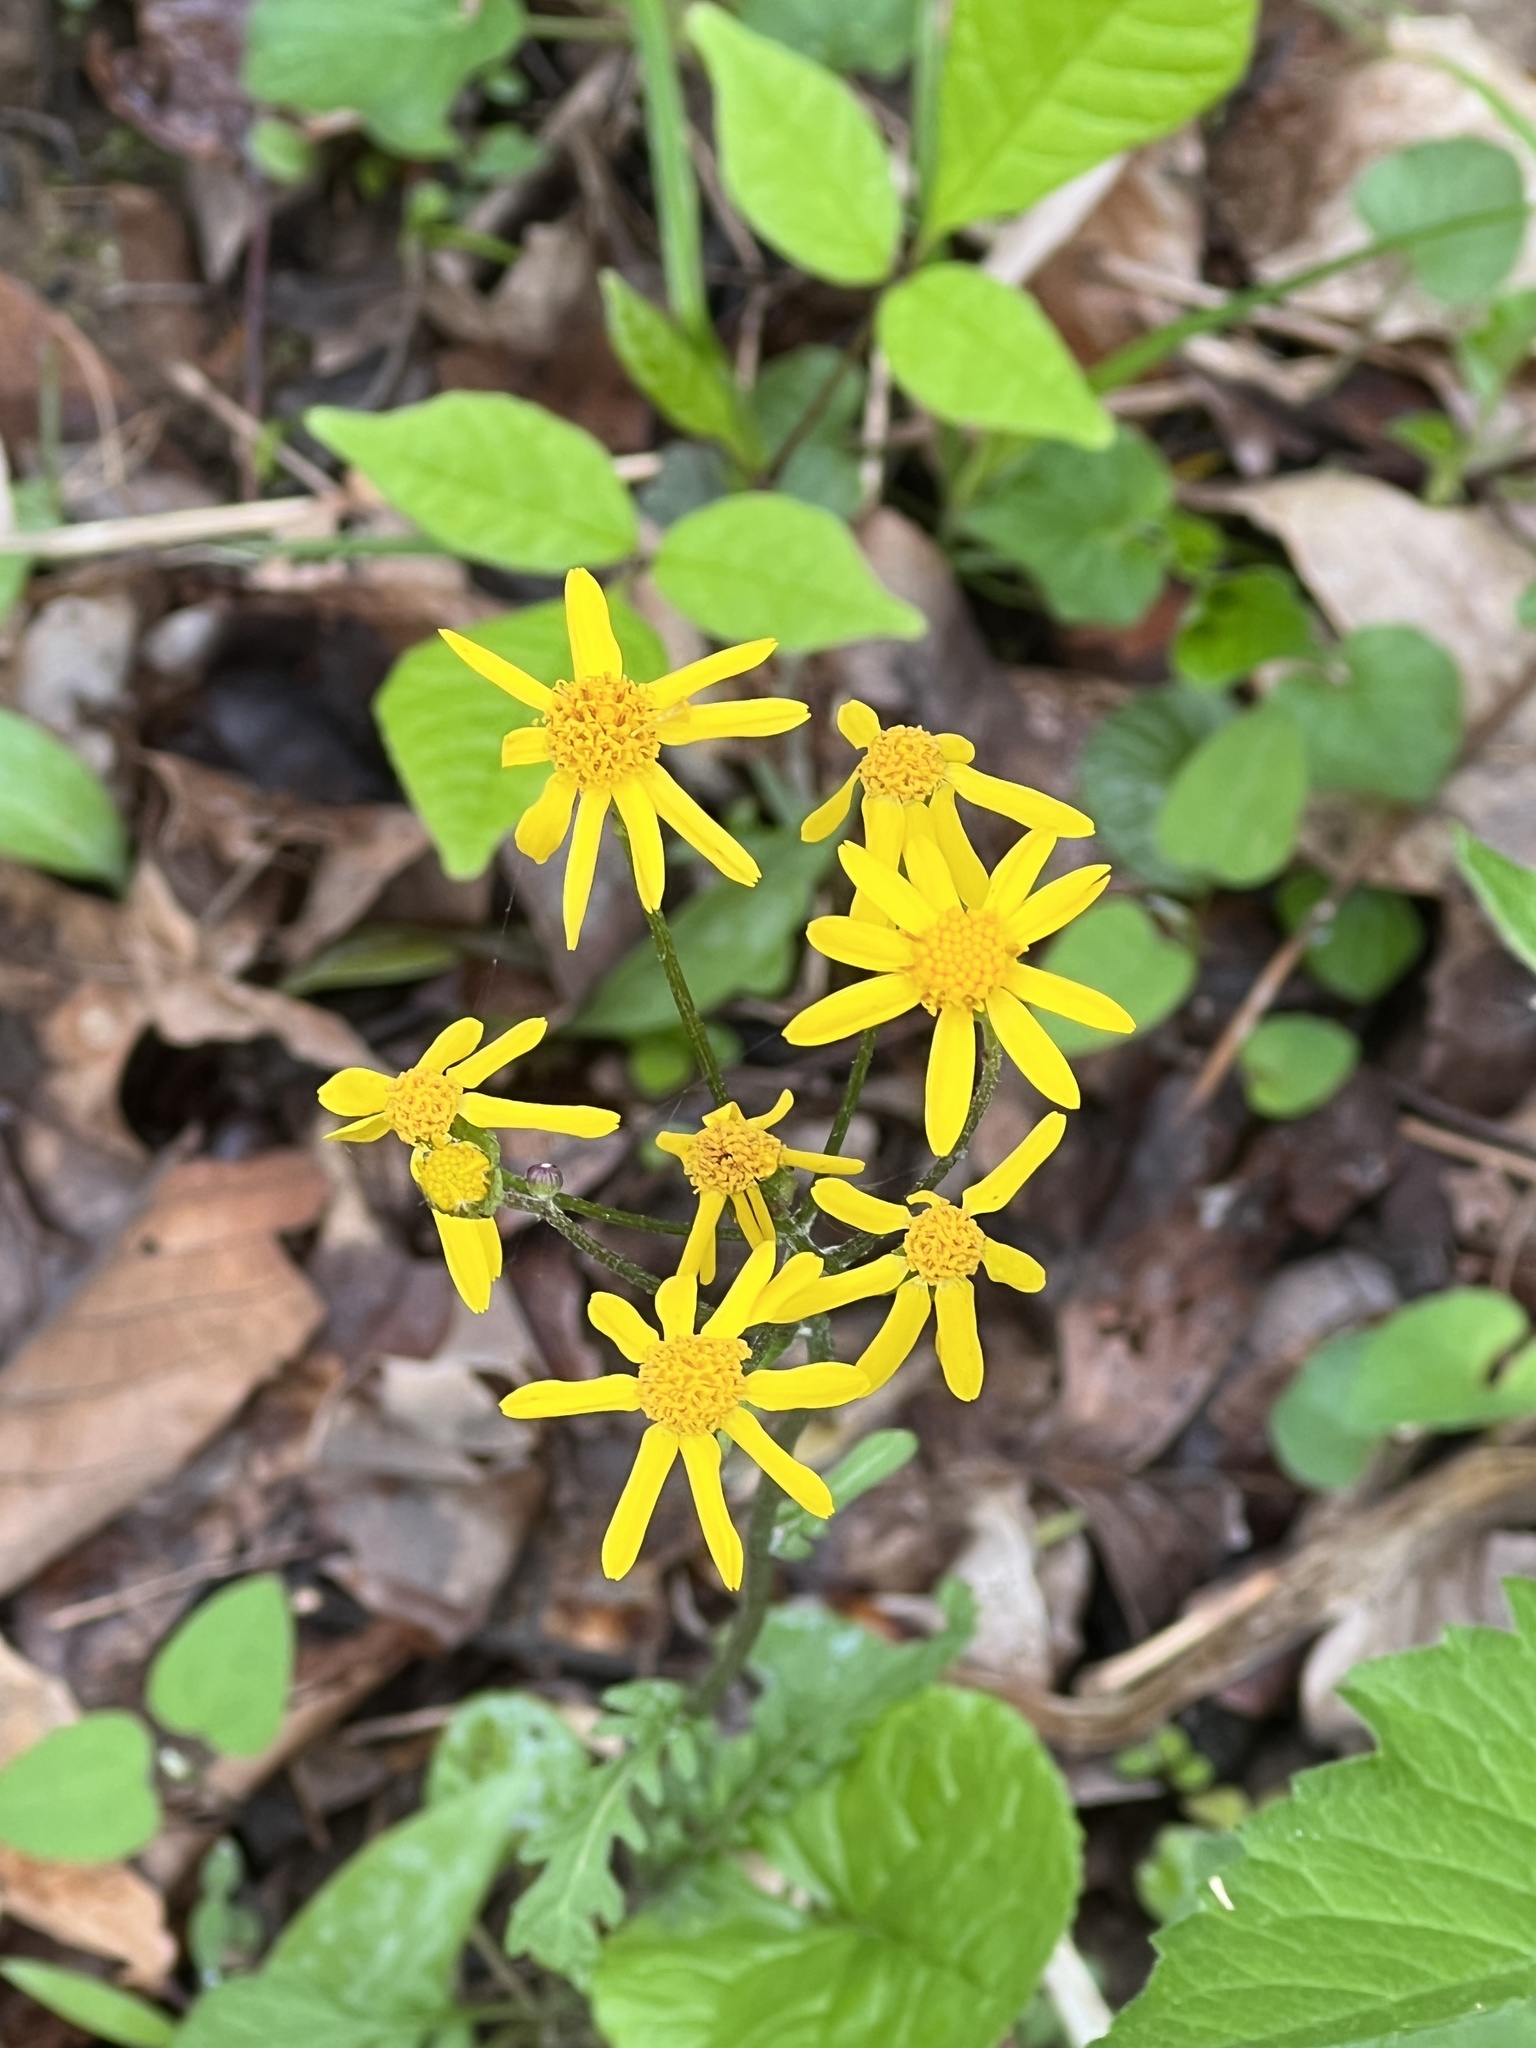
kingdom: Plantae
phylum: Tracheophyta
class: Magnoliopsida
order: Asterales
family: Asteraceae
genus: Packera
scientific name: Packera aurea
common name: Golden groundsel
